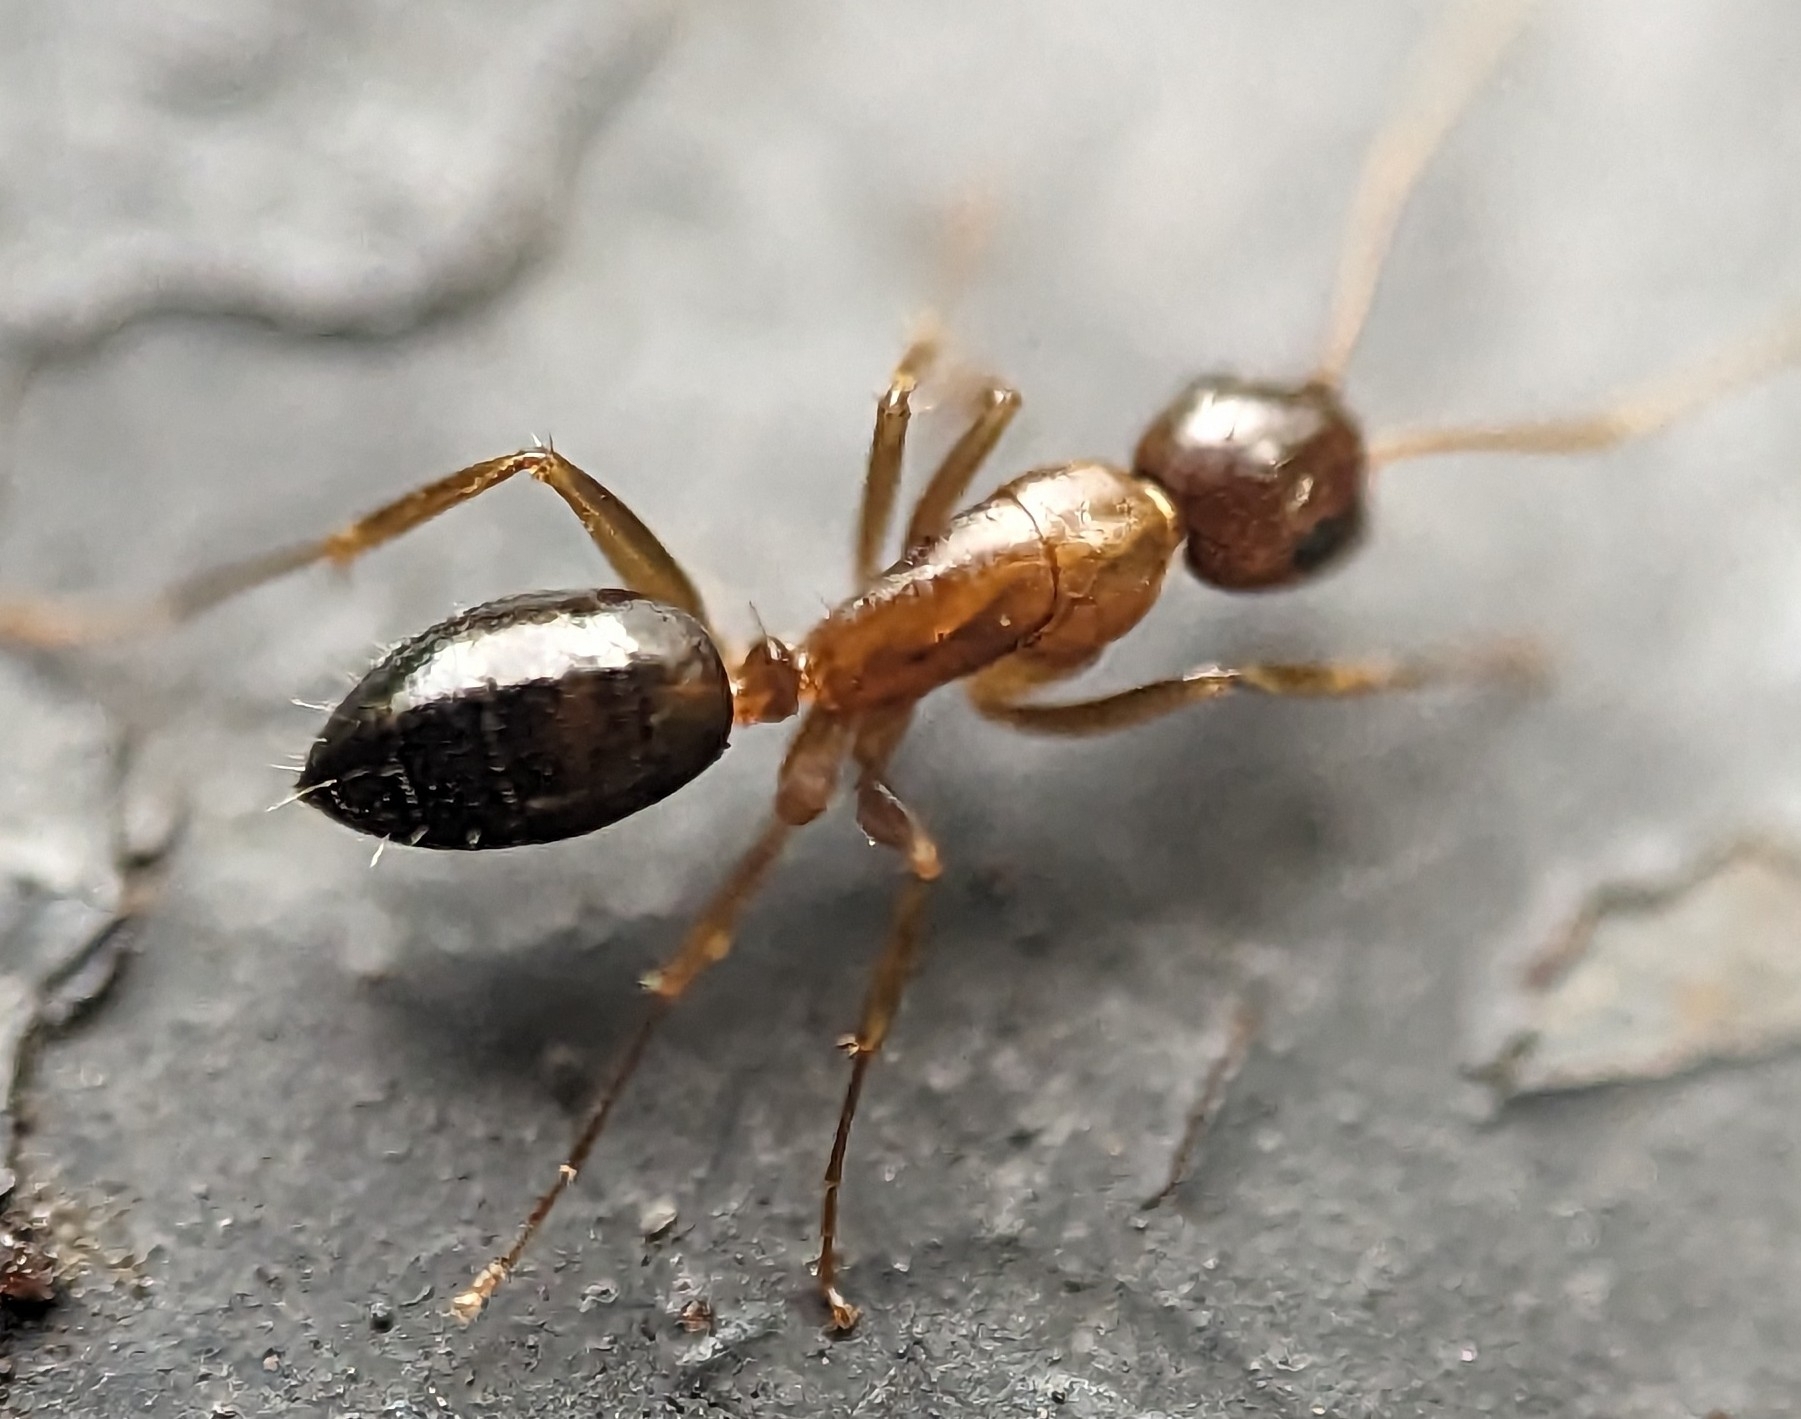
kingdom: Animalia
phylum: Arthropoda
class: Insecta
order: Hymenoptera
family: Formicidae
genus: Camponotus
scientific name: Camponotus nearcticus
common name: Smaller carpenter ant
